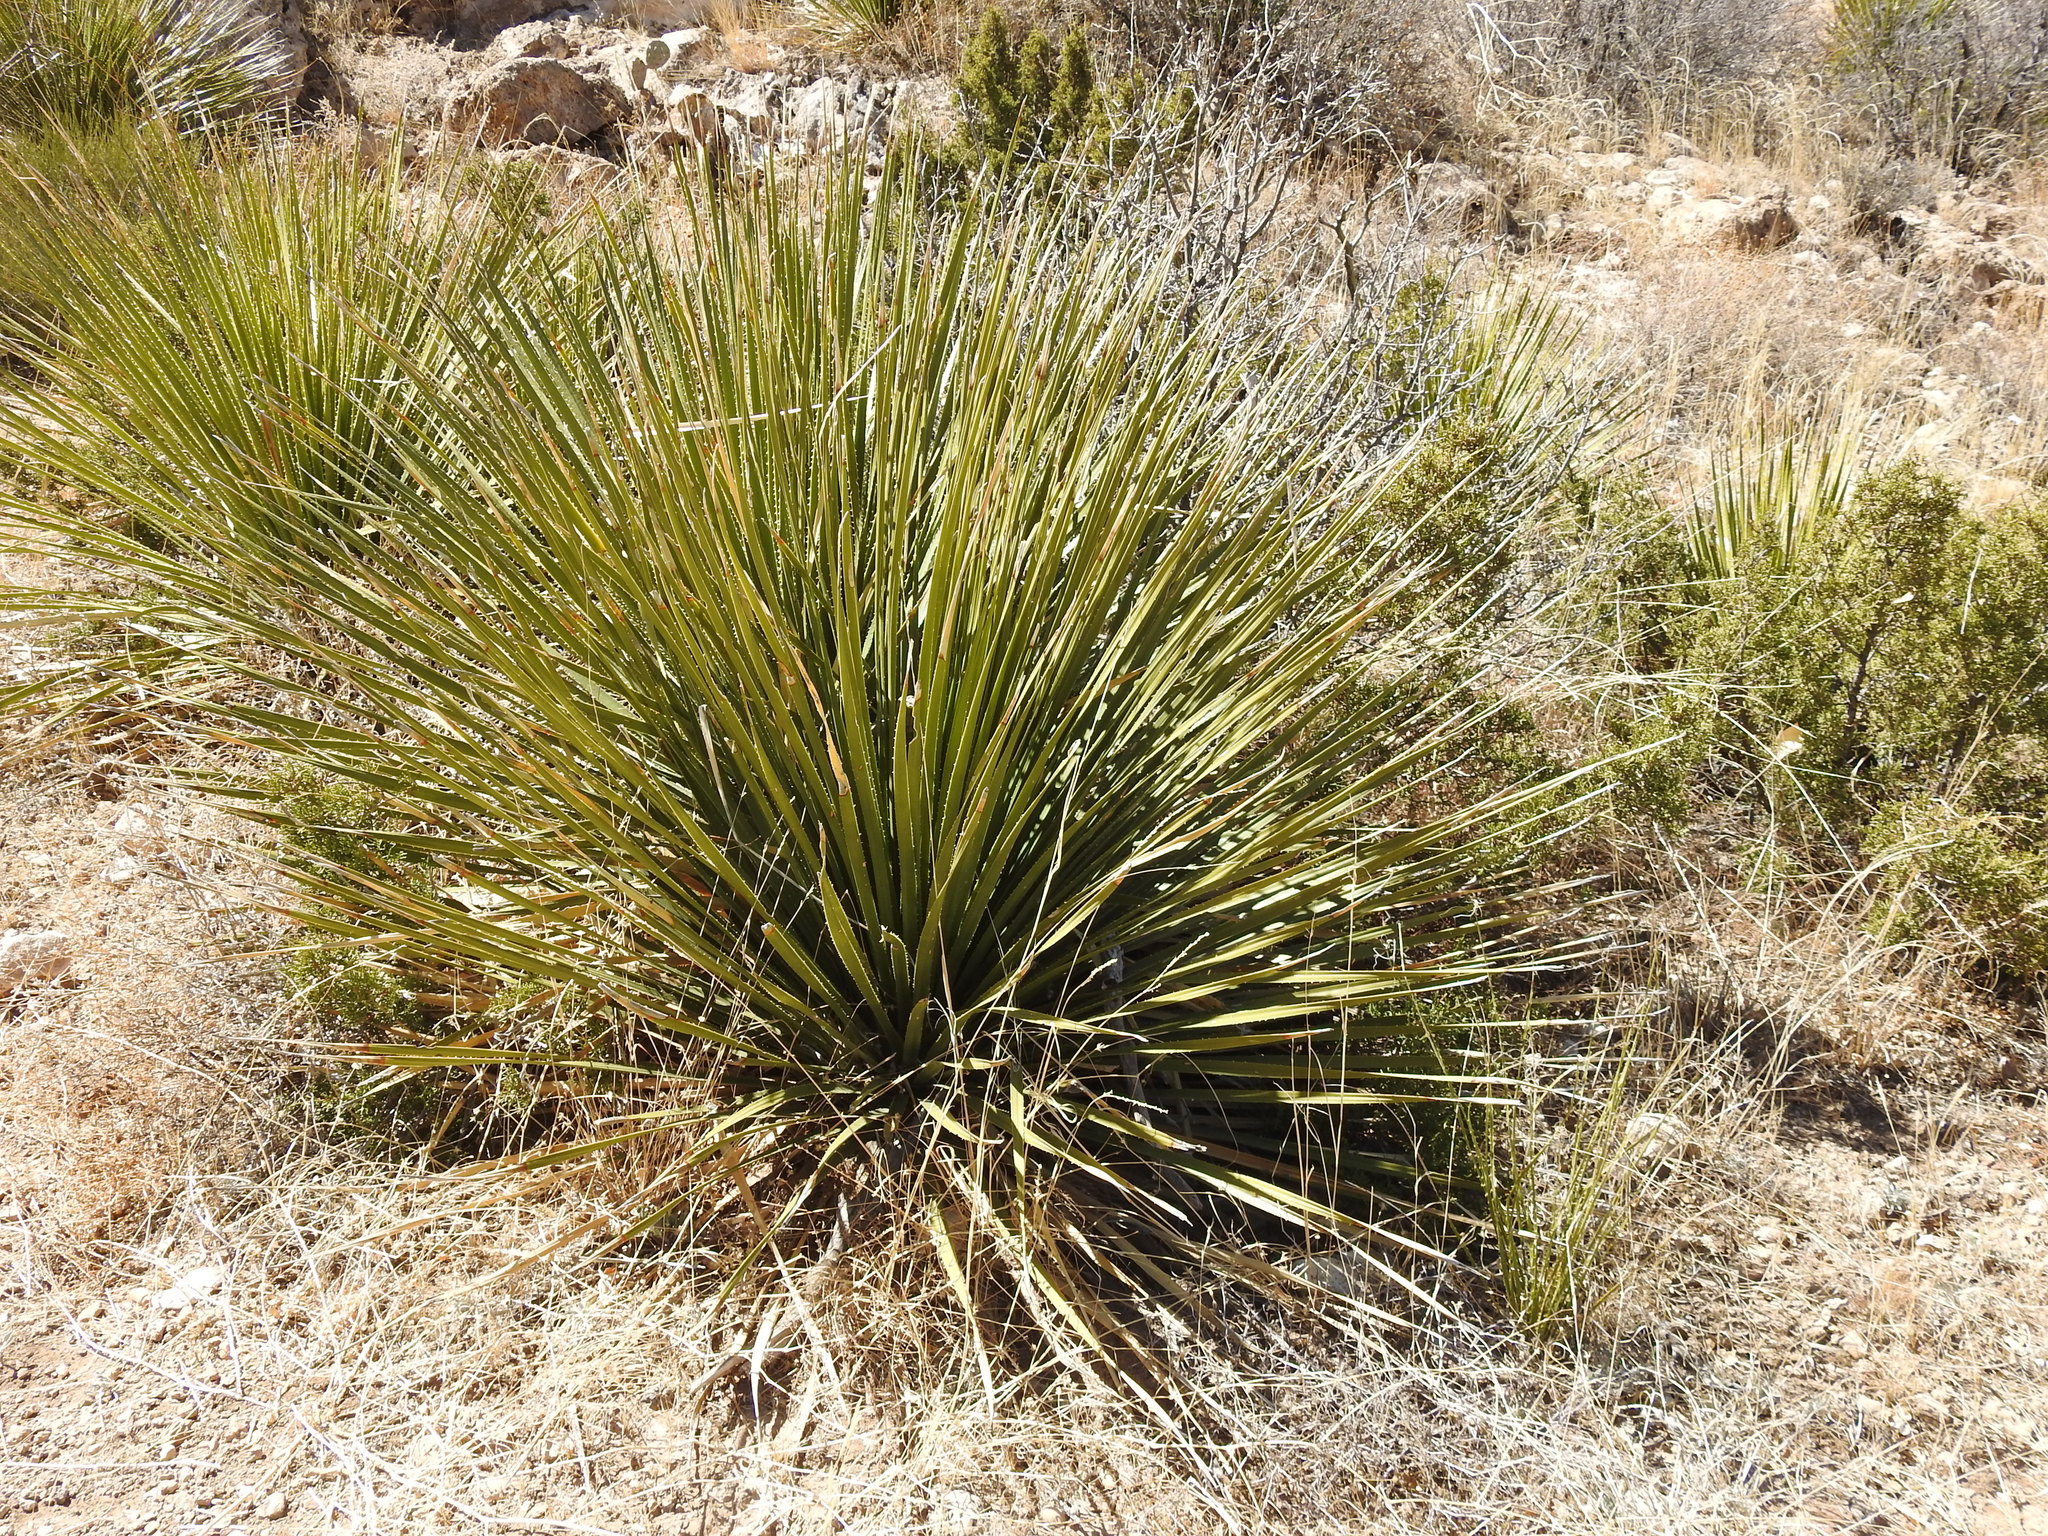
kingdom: Plantae
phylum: Tracheophyta
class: Liliopsida
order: Asparagales
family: Asparagaceae
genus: Dasylirion
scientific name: Dasylirion leiophyllum
